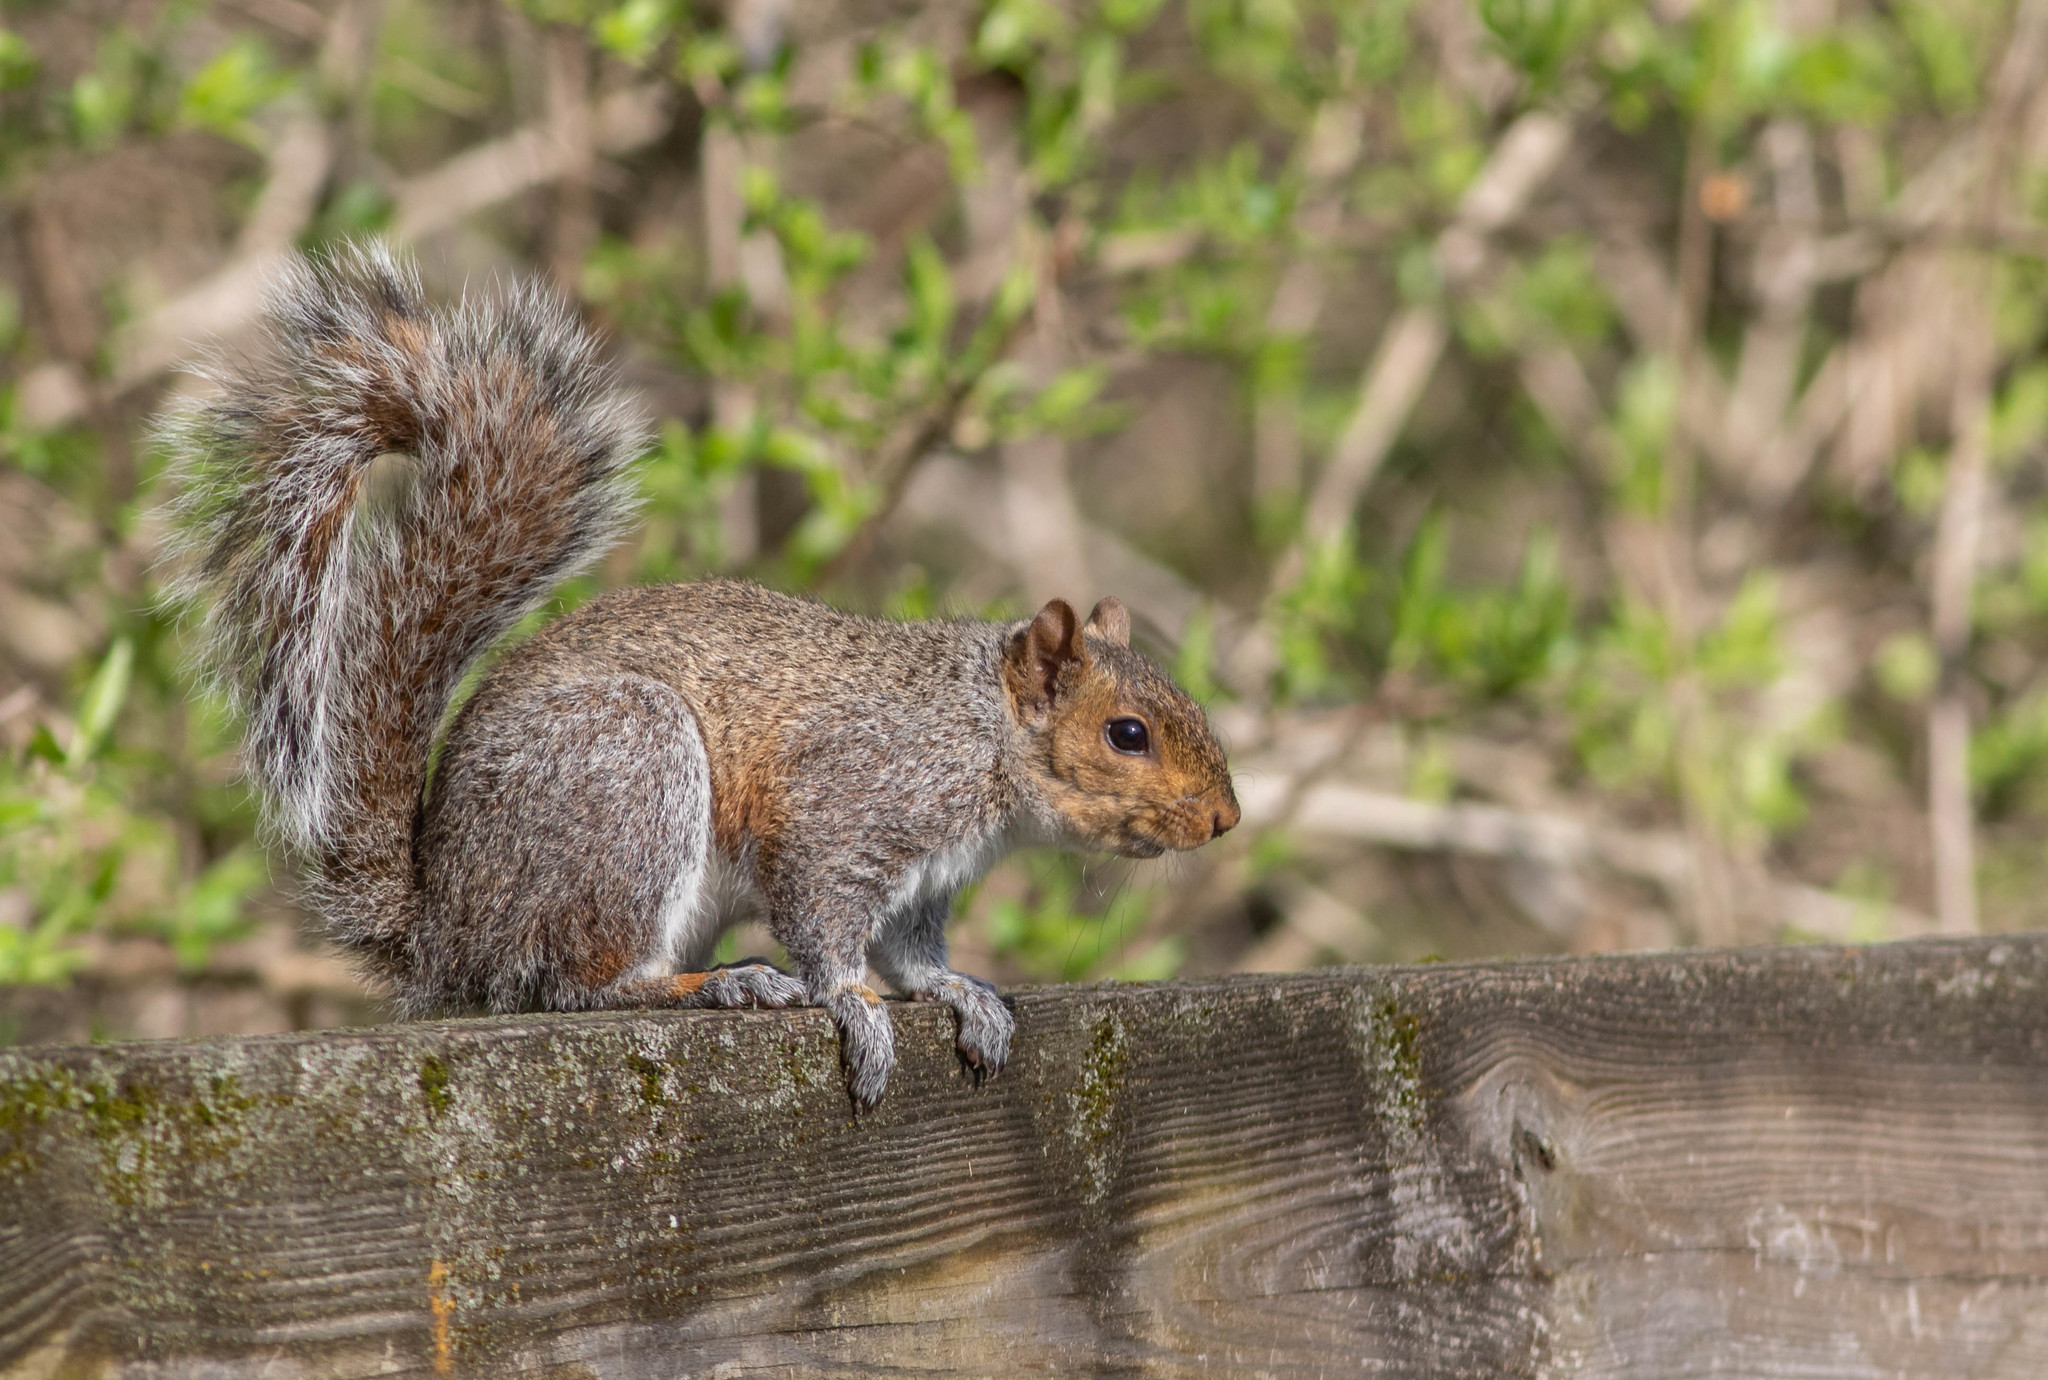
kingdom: Animalia
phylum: Chordata
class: Mammalia
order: Rodentia
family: Sciuridae
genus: Sciurus
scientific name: Sciurus carolinensis
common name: Eastern gray squirrel
